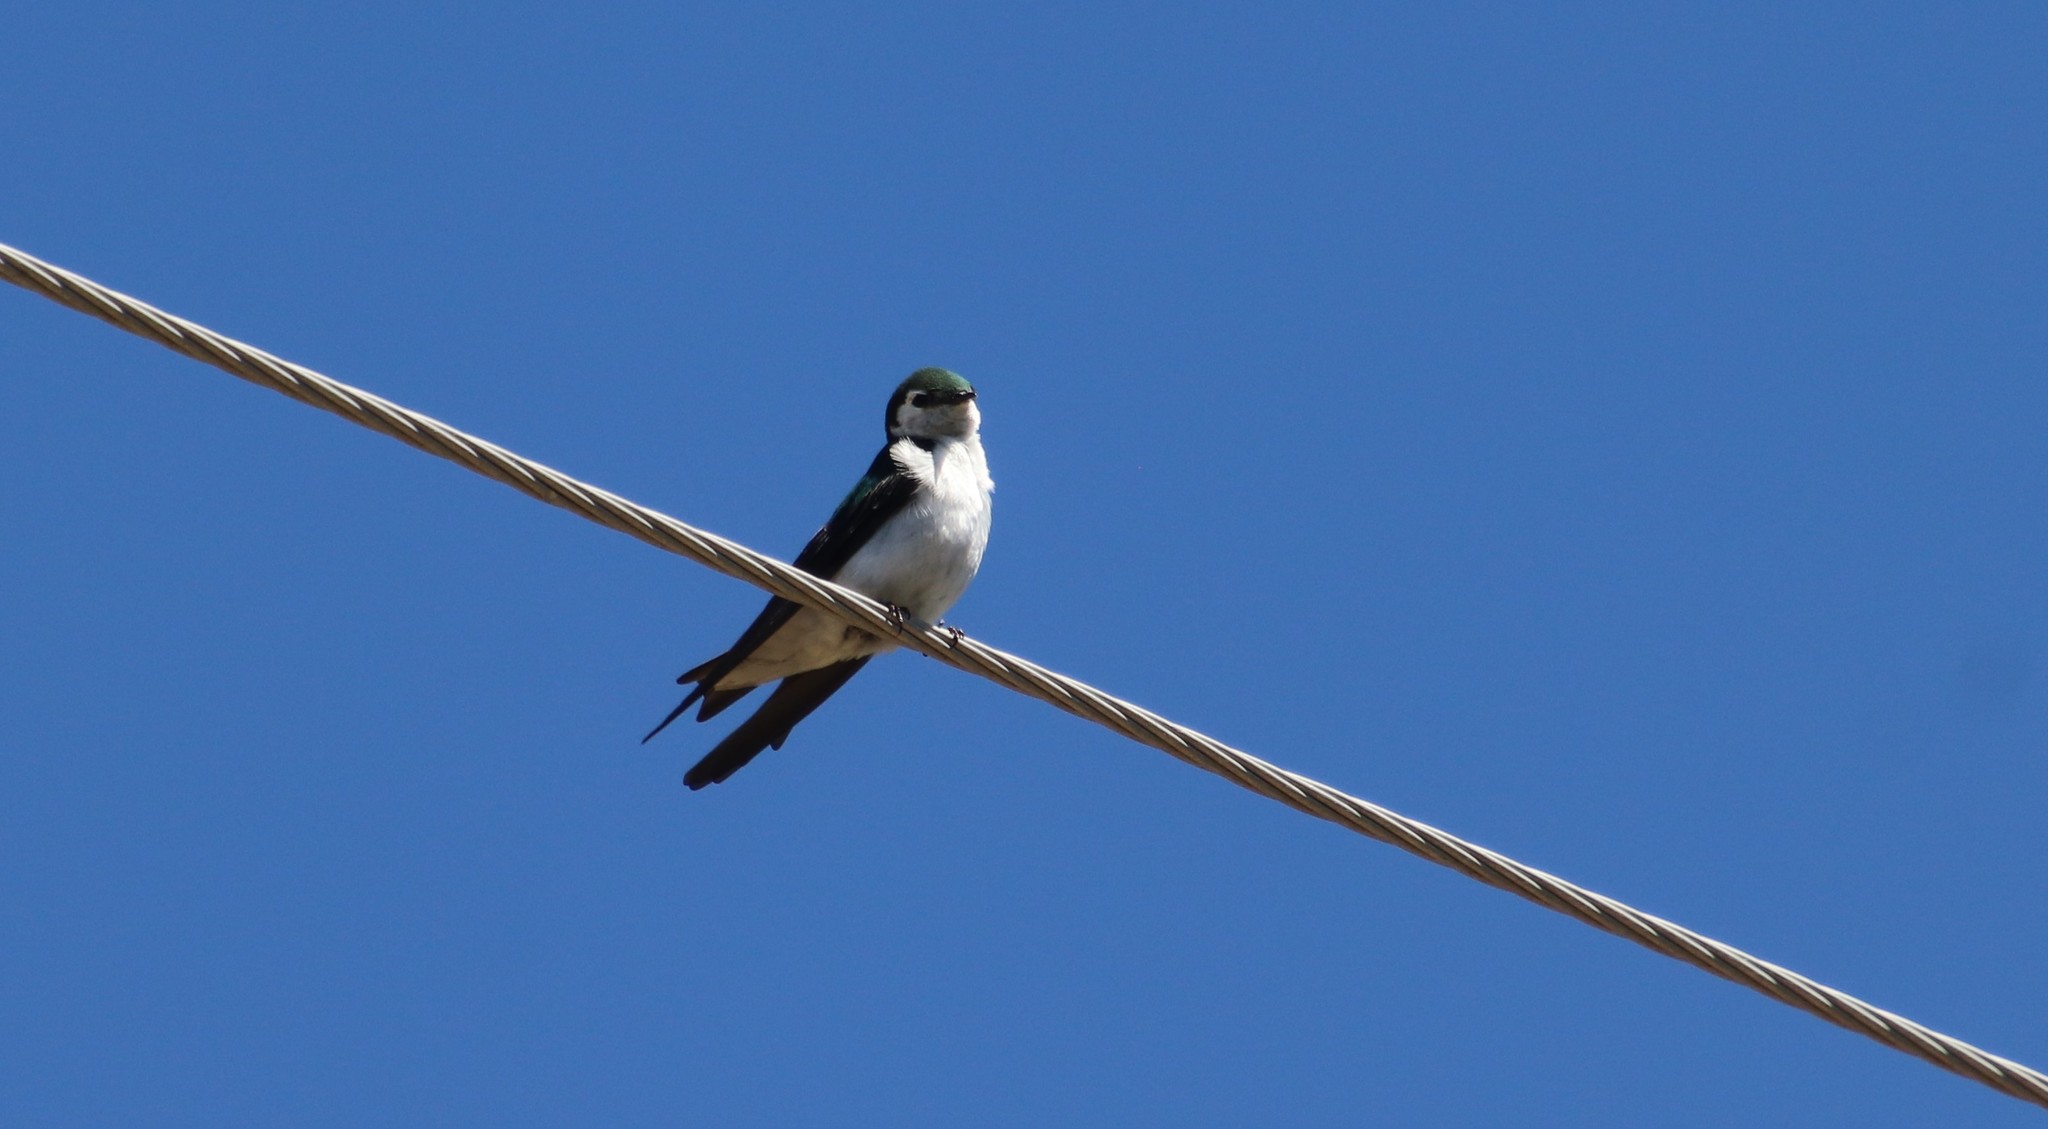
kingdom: Animalia
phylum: Chordata
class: Aves
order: Passeriformes
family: Hirundinidae
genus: Tachycineta
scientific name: Tachycineta thalassina
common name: Violet-green swallow
